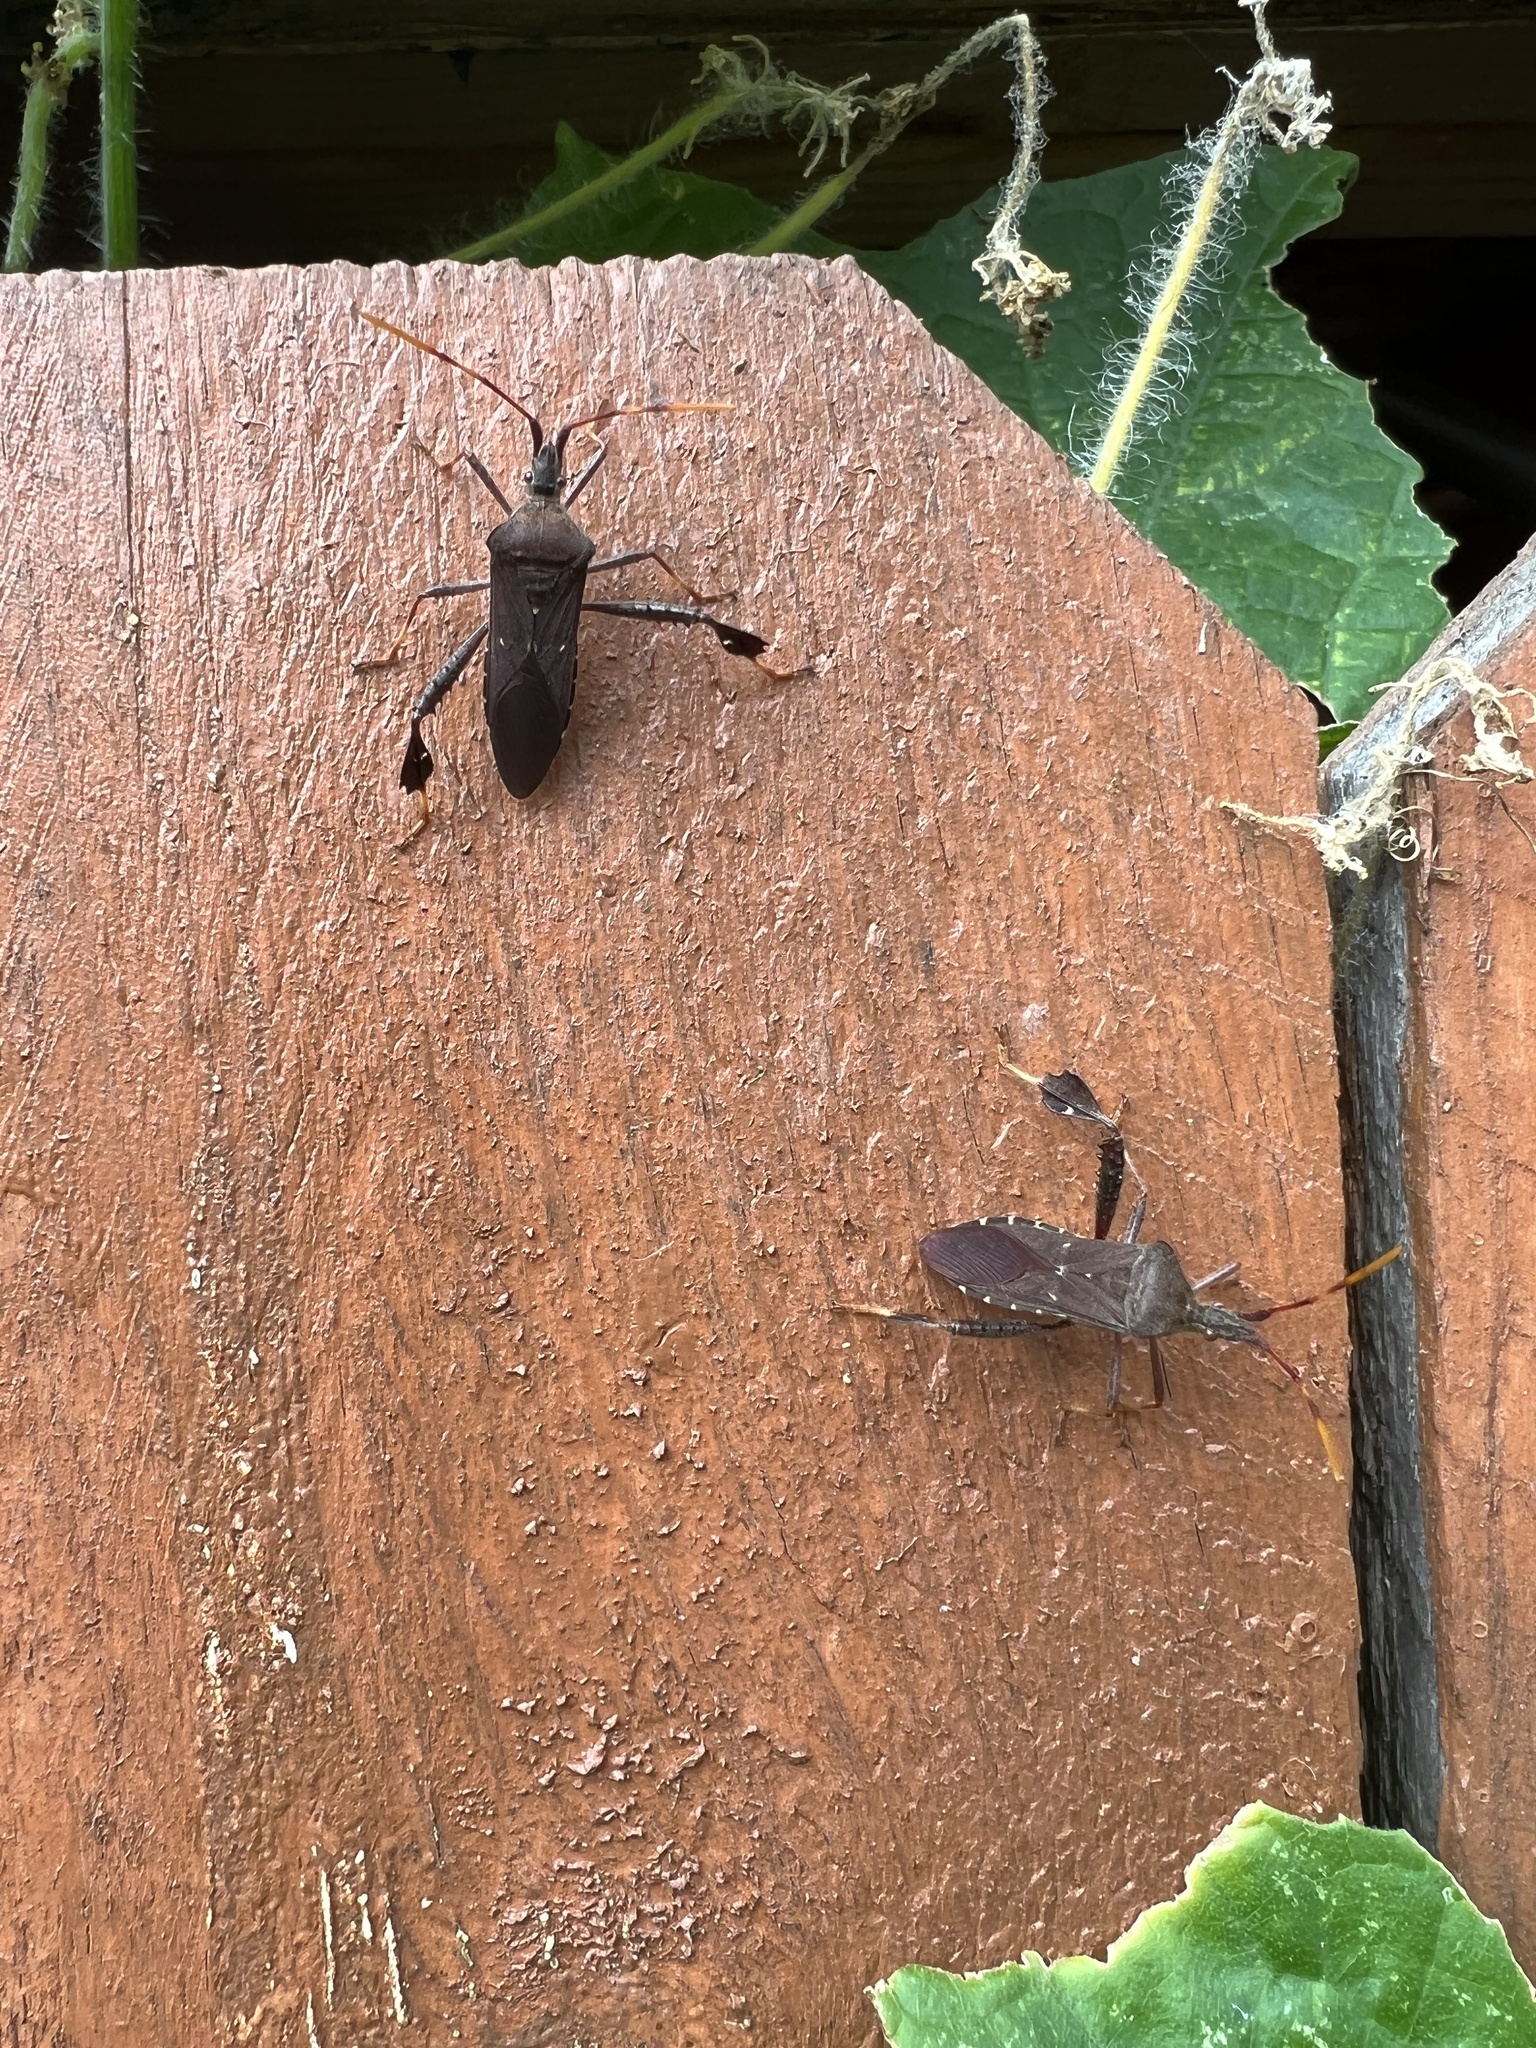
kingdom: Animalia
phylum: Arthropoda
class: Insecta
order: Hemiptera
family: Coreidae
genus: Leptoglossus
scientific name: Leptoglossus oppositus
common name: Northern leaf-footed bug
